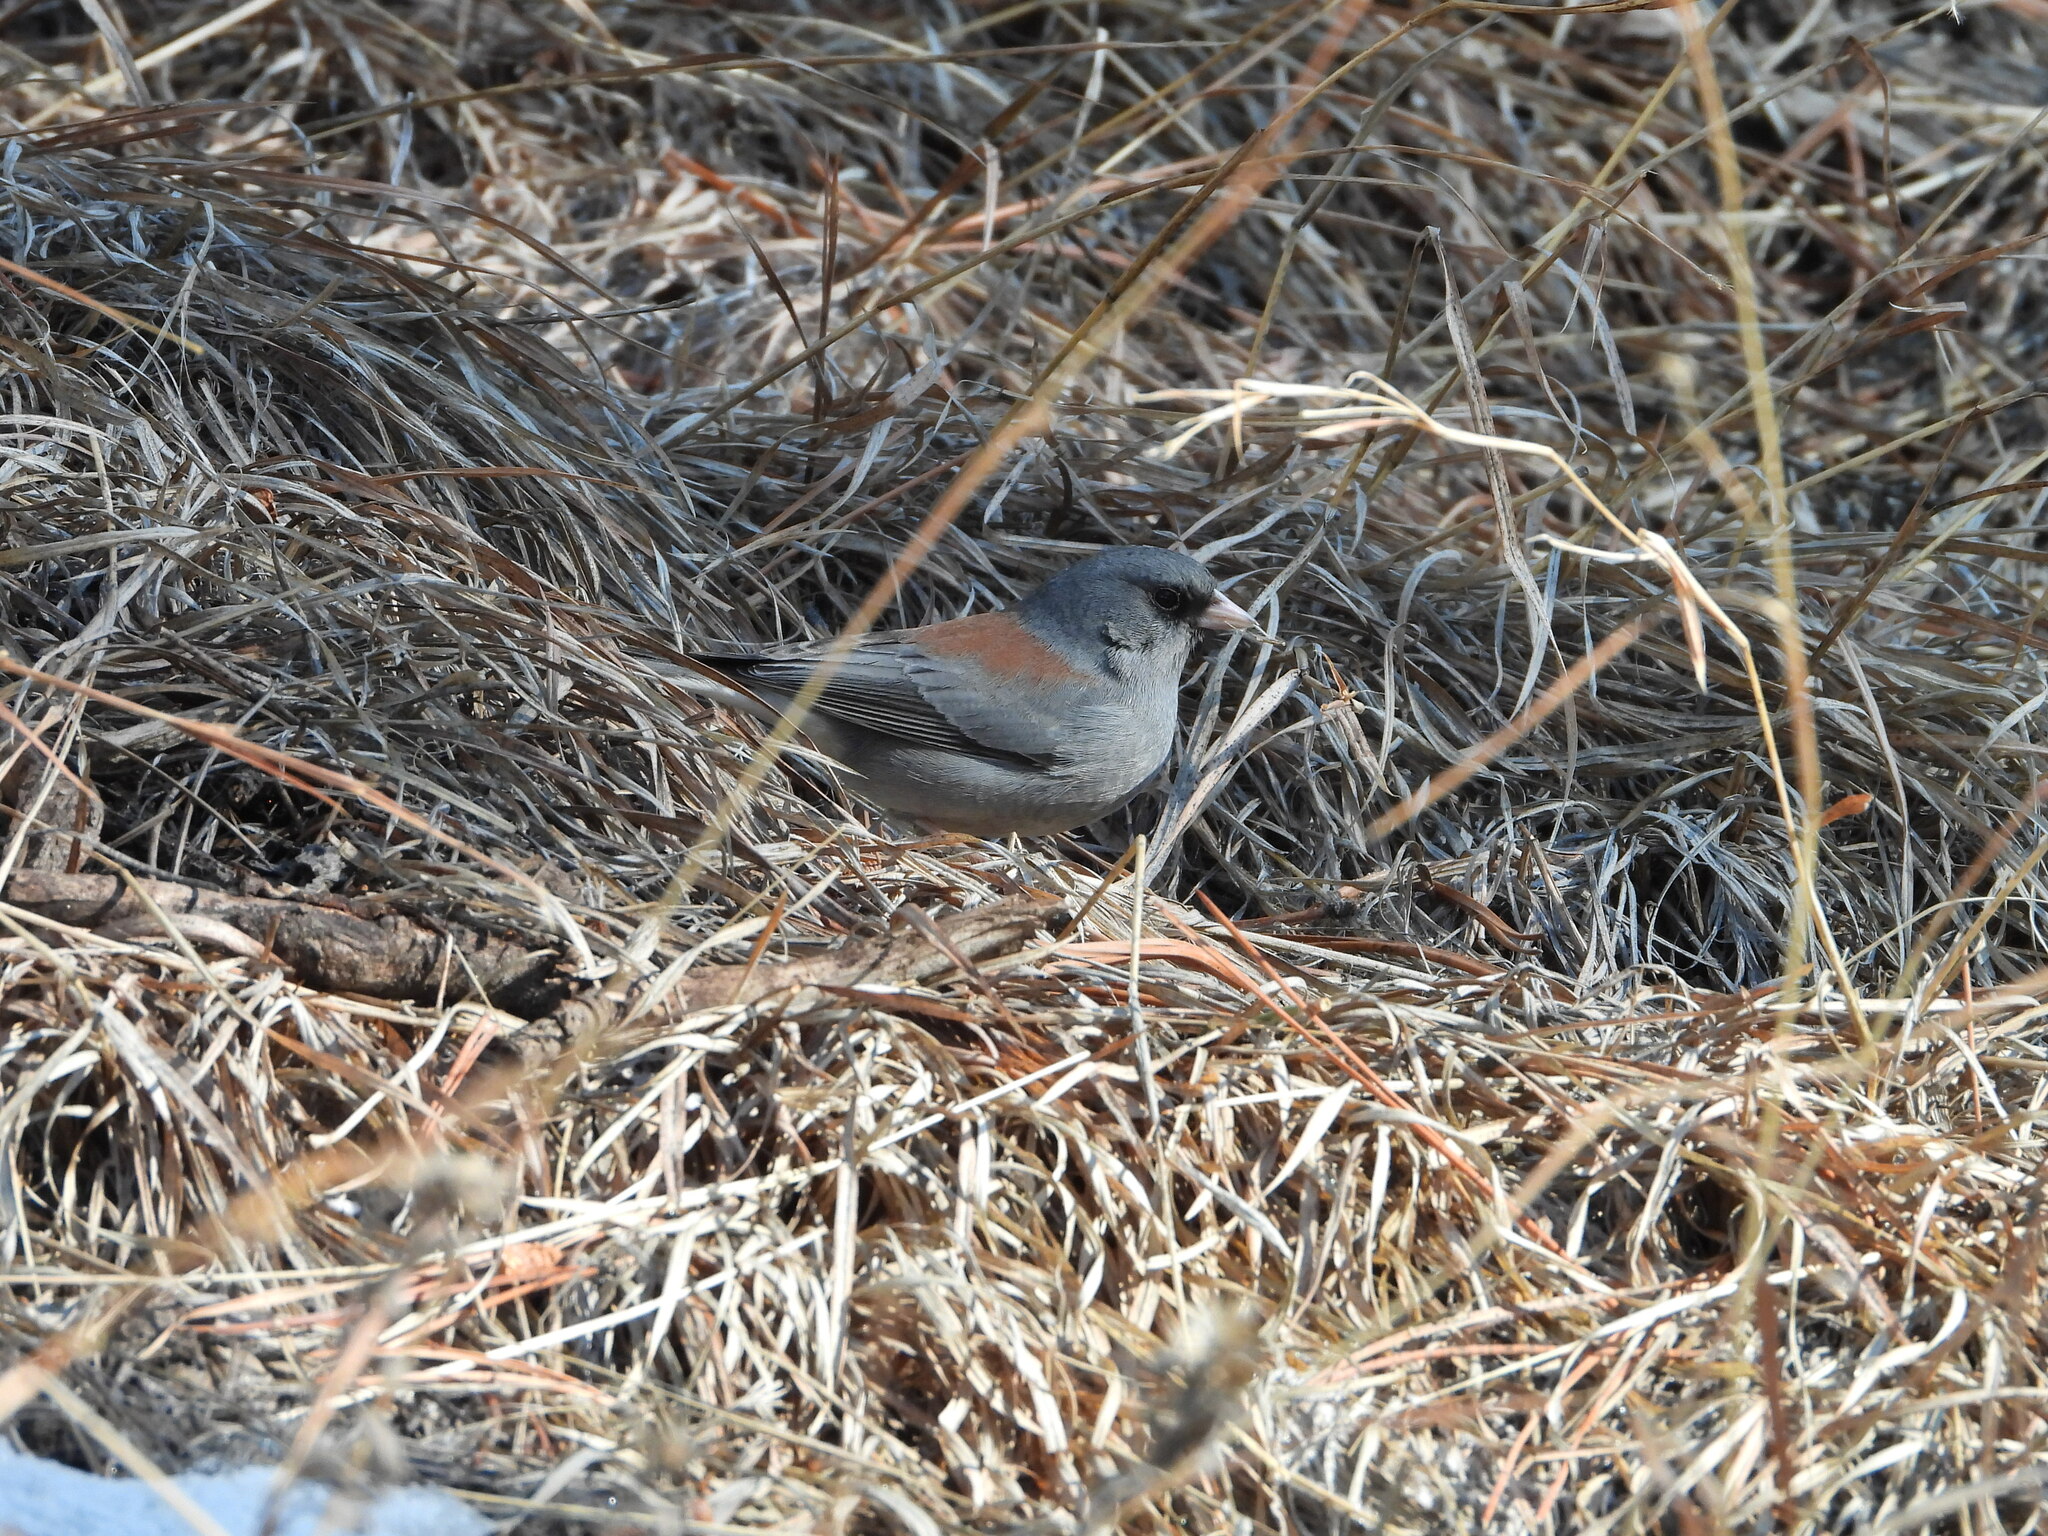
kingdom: Animalia
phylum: Chordata
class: Aves
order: Passeriformes
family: Passerellidae
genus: Junco
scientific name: Junco hyemalis
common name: Dark-eyed junco
